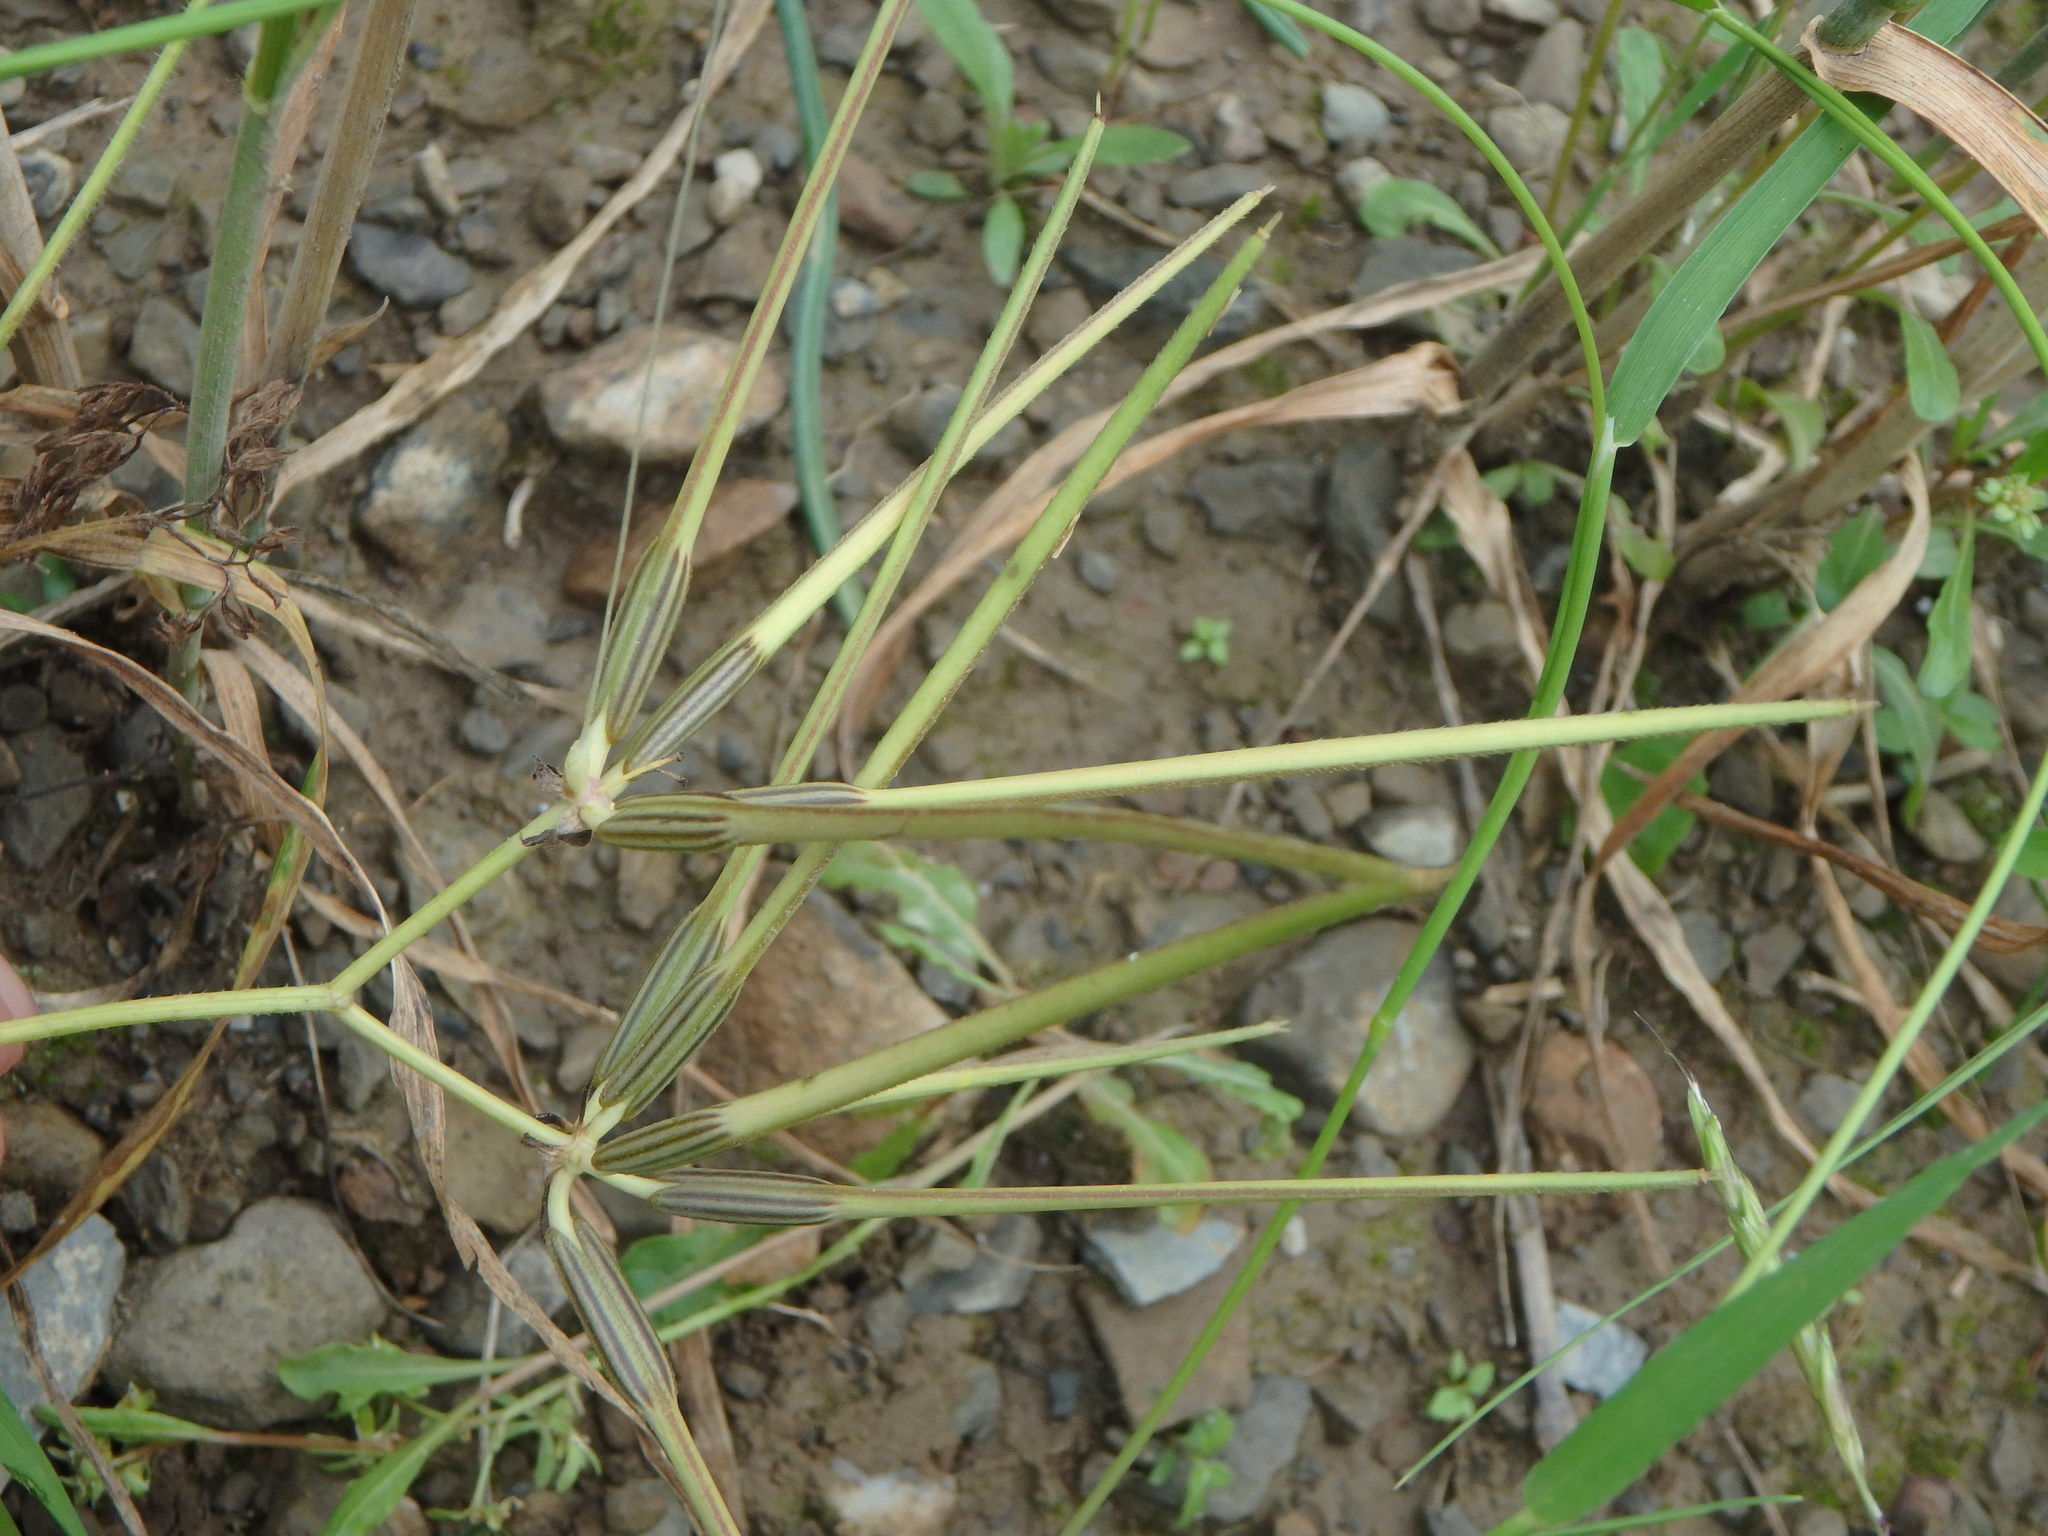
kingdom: Plantae
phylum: Tracheophyta
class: Magnoliopsida
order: Apiales
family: Apiaceae
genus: Scandix
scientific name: Scandix pecten-veneris
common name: Shepherd's-needle
